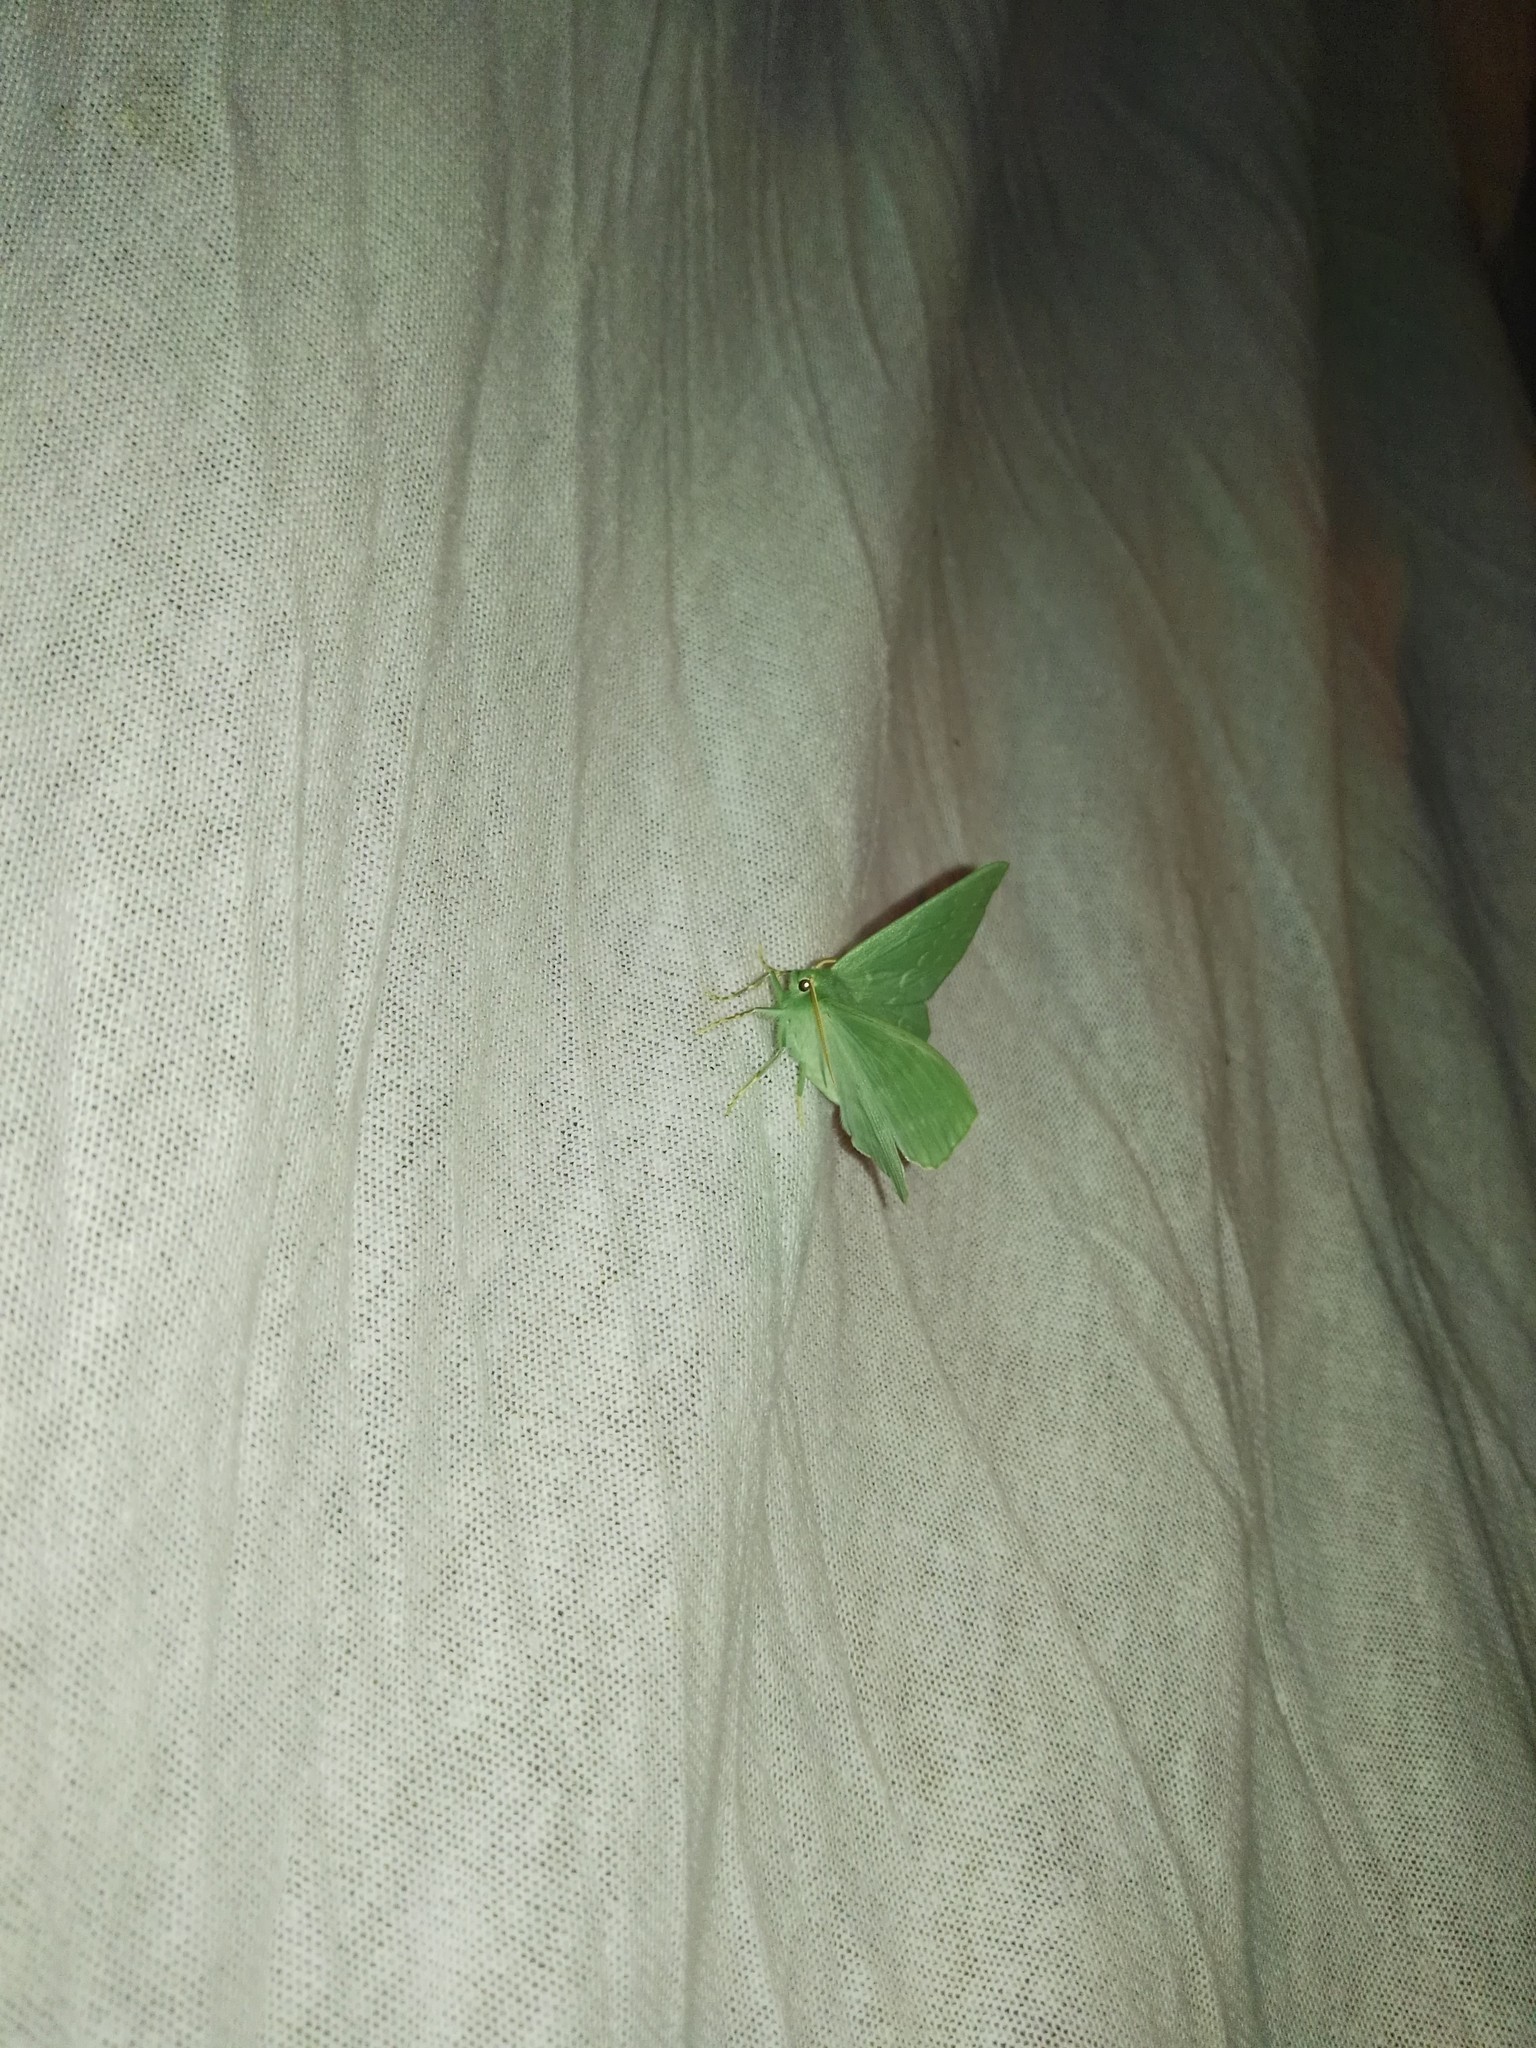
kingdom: Animalia
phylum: Arthropoda
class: Insecta
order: Lepidoptera
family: Geometridae
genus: Geometra
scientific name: Geometra papilionaria
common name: Large emerald
